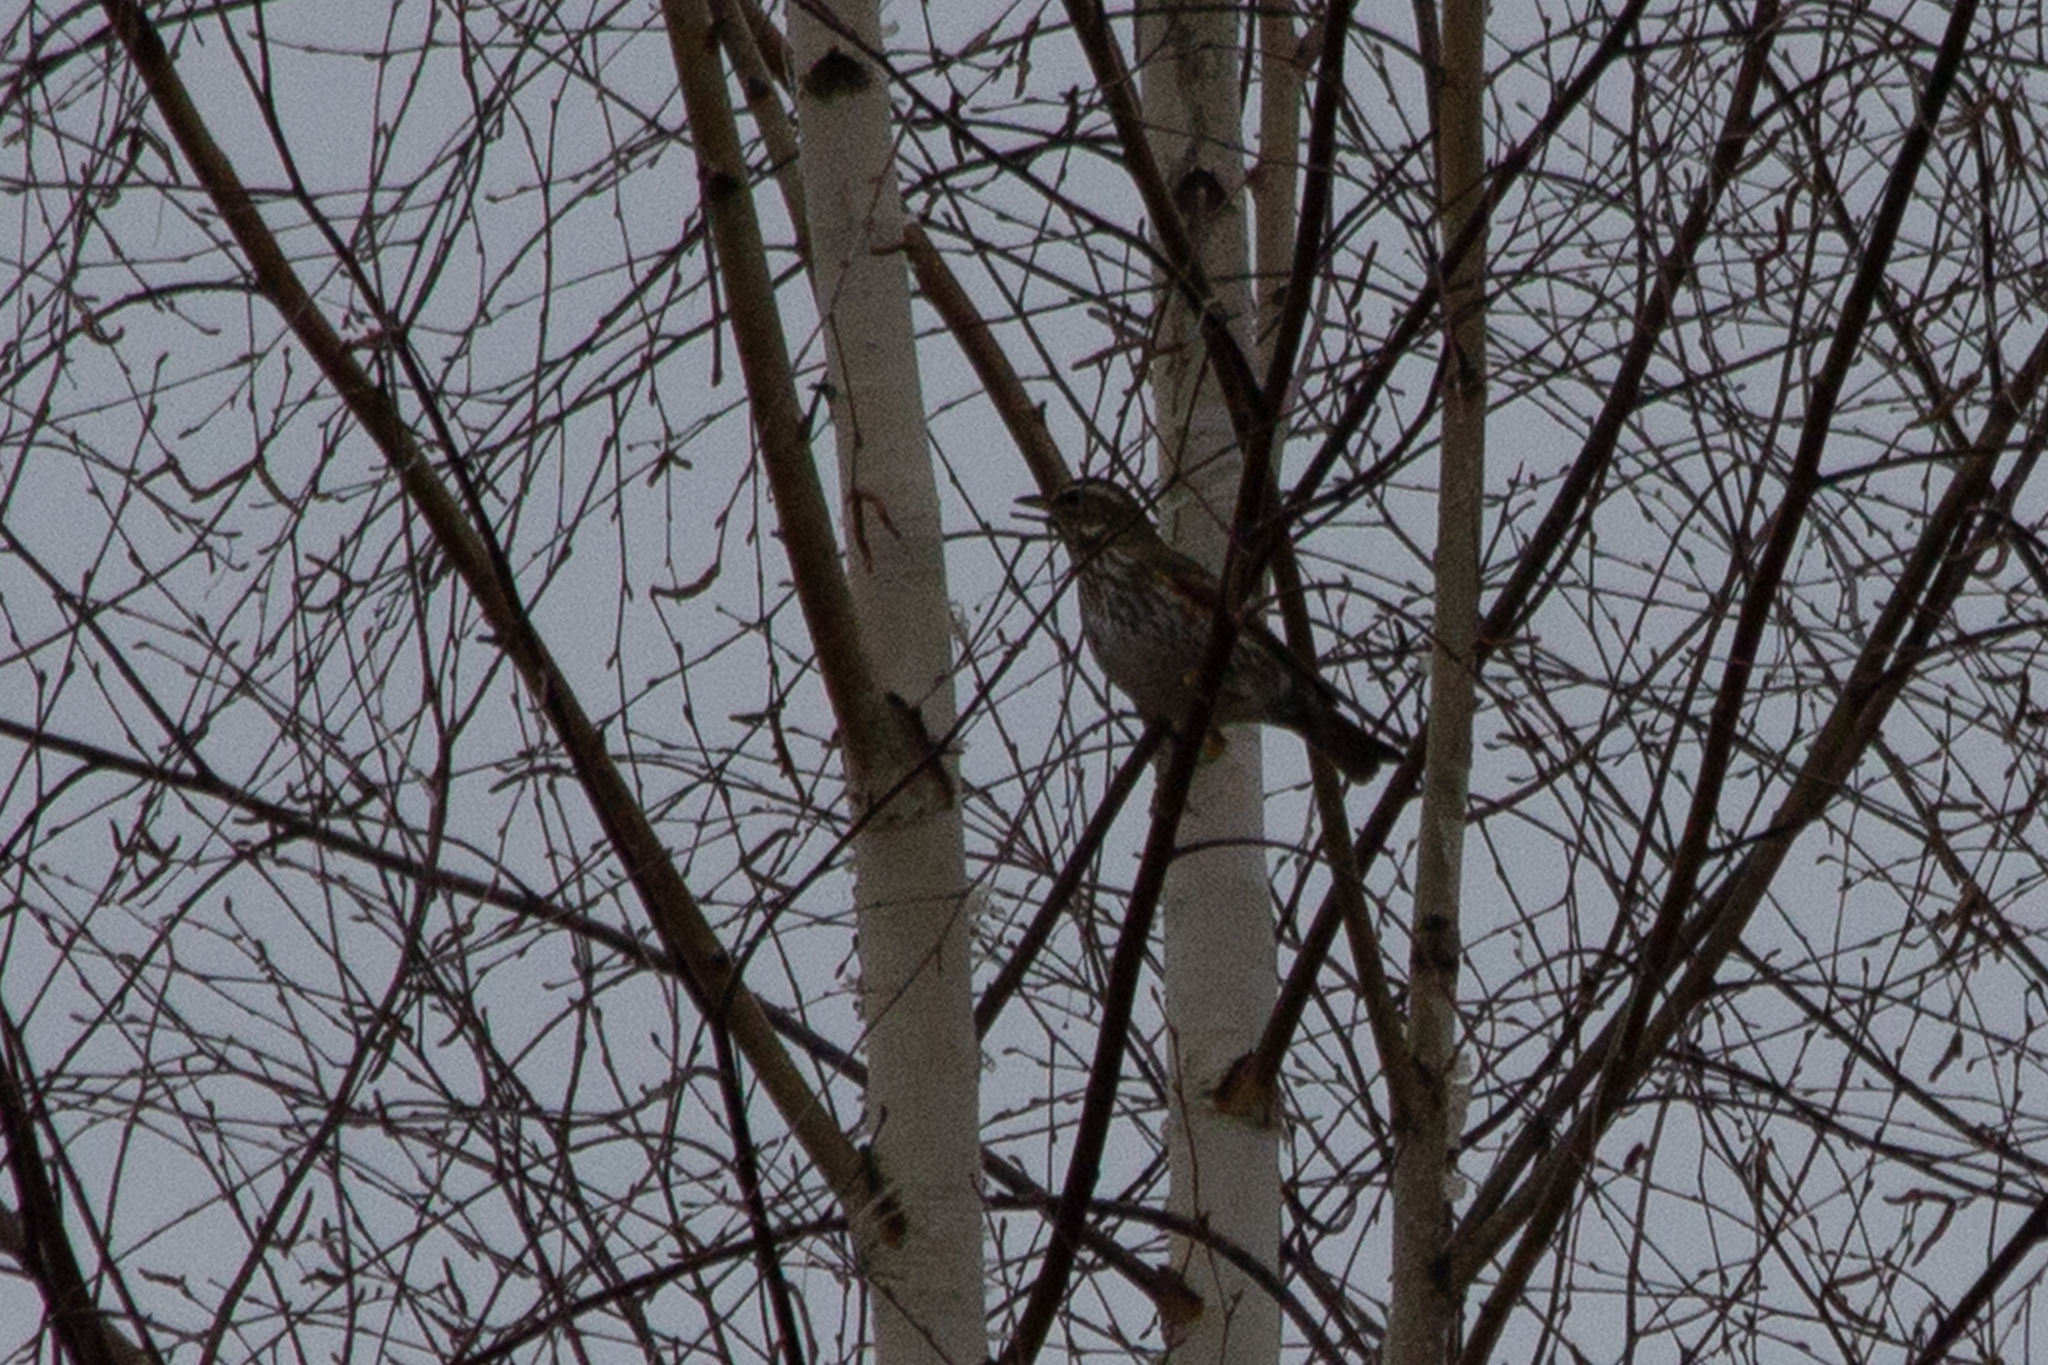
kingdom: Animalia
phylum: Chordata
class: Aves
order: Passeriformes
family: Turdidae
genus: Turdus
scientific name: Turdus iliacus
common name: Redwing
